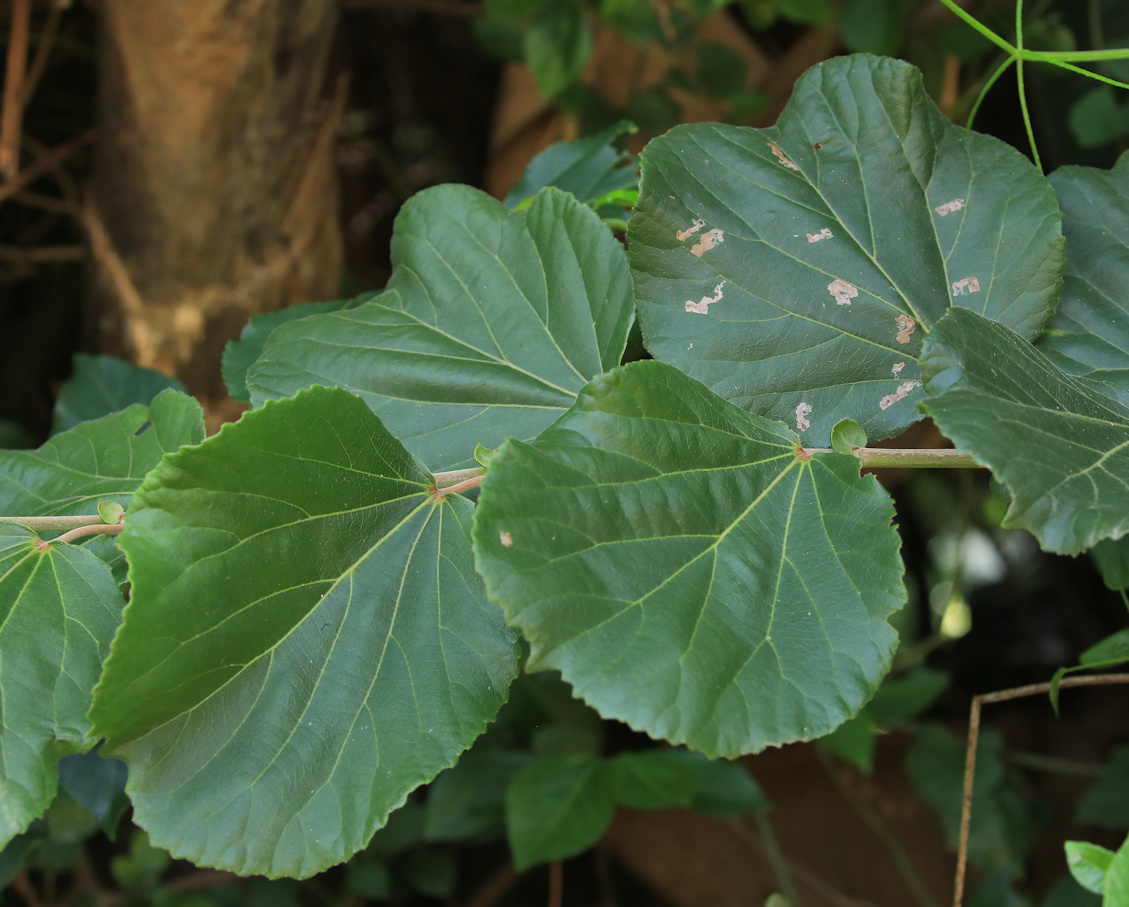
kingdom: Plantae
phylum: Tracheophyta
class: Magnoliopsida
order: Malpighiales
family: Salicaceae
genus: Trimeria
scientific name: Trimeria grandifolia
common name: Wild mulberry
